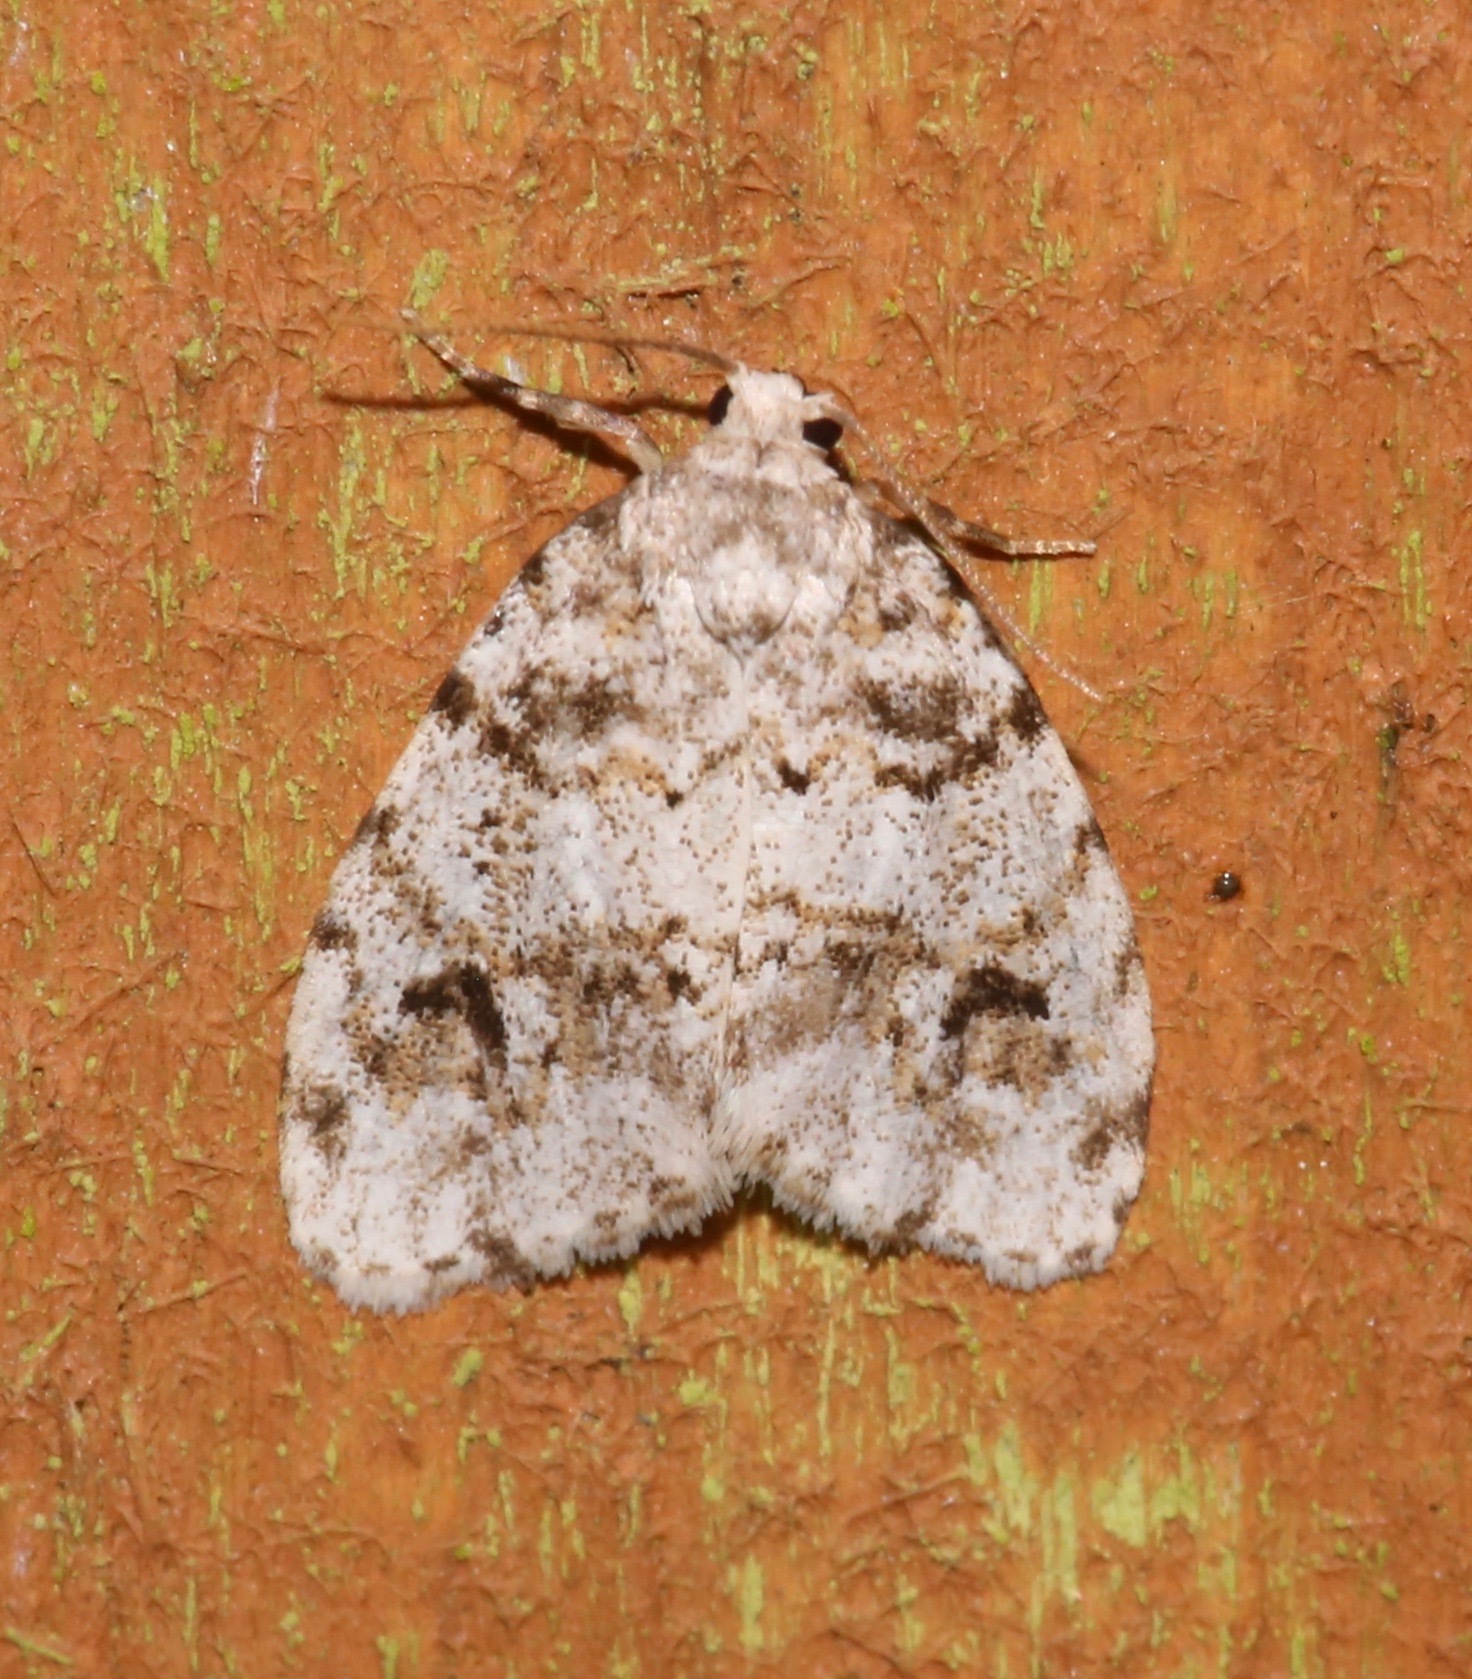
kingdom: Animalia
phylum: Arthropoda
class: Insecta
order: Lepidoptera
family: Erebidae
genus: Clemensia
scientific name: Clemensia ochreata
